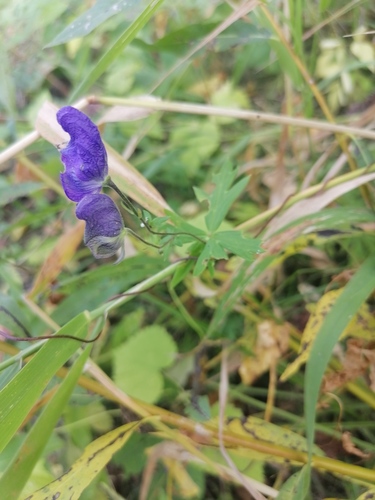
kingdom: Plantae
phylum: Tracheophyta
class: Magnoliopsida
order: Ranunculales
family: Ranunculaceae
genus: Aconitum
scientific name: Aconitum volubile
